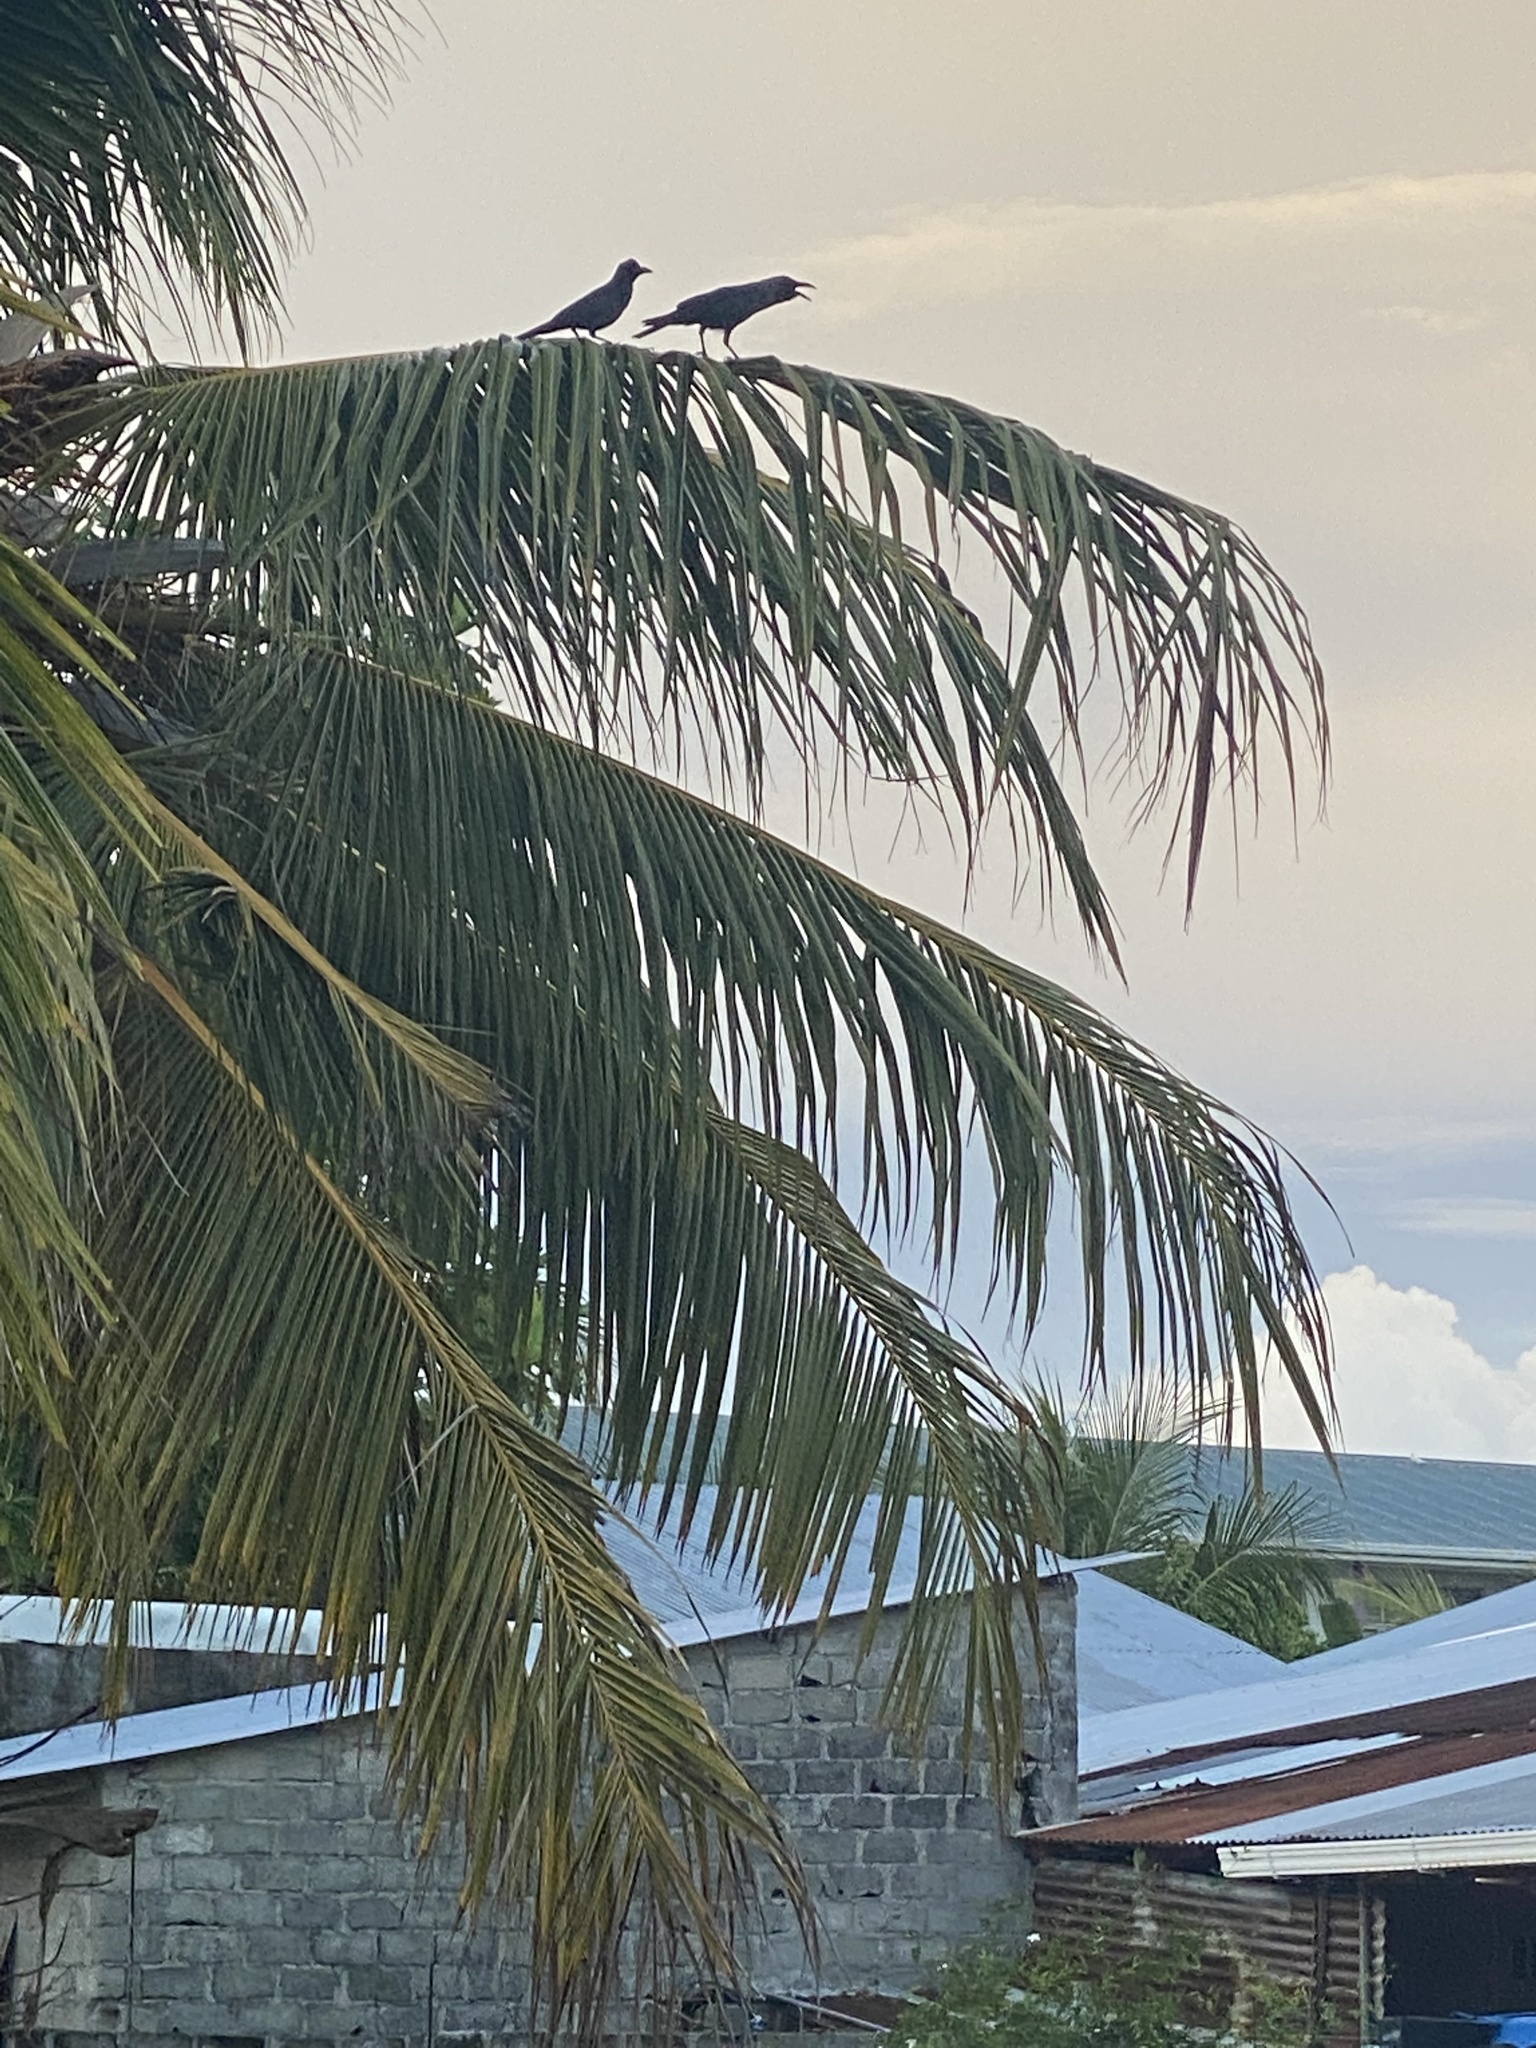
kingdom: Animalia
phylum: Chordata
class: Aves
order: Passeriformes
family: Corvidae
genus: Corvus
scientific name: Corvus splendens
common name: House crow
